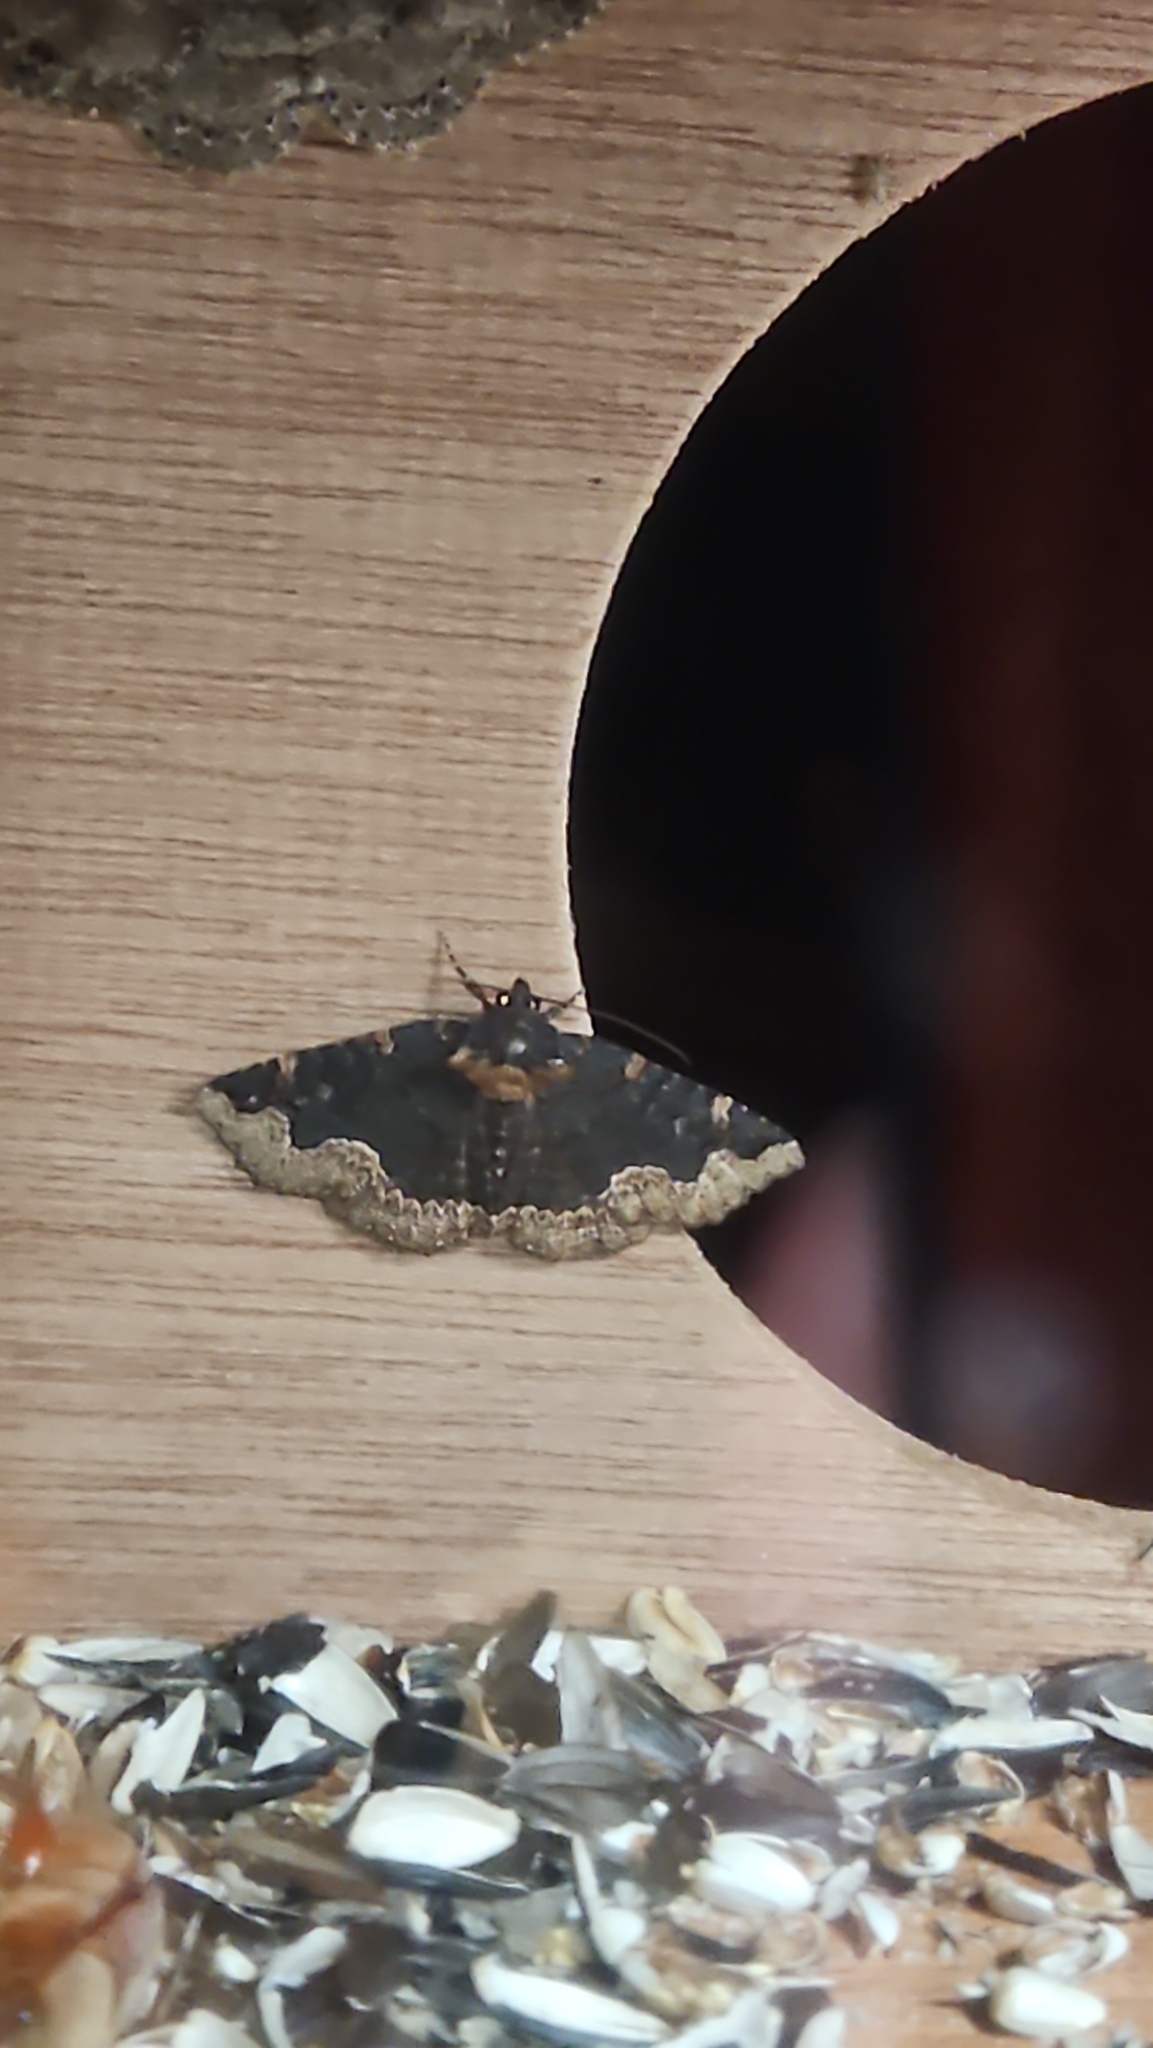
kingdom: Animalia
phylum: Arthropoda
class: Insecta
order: Lepidoptera
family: Erebidae
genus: Zale
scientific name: Zale horrida
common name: Horrid zale moth
